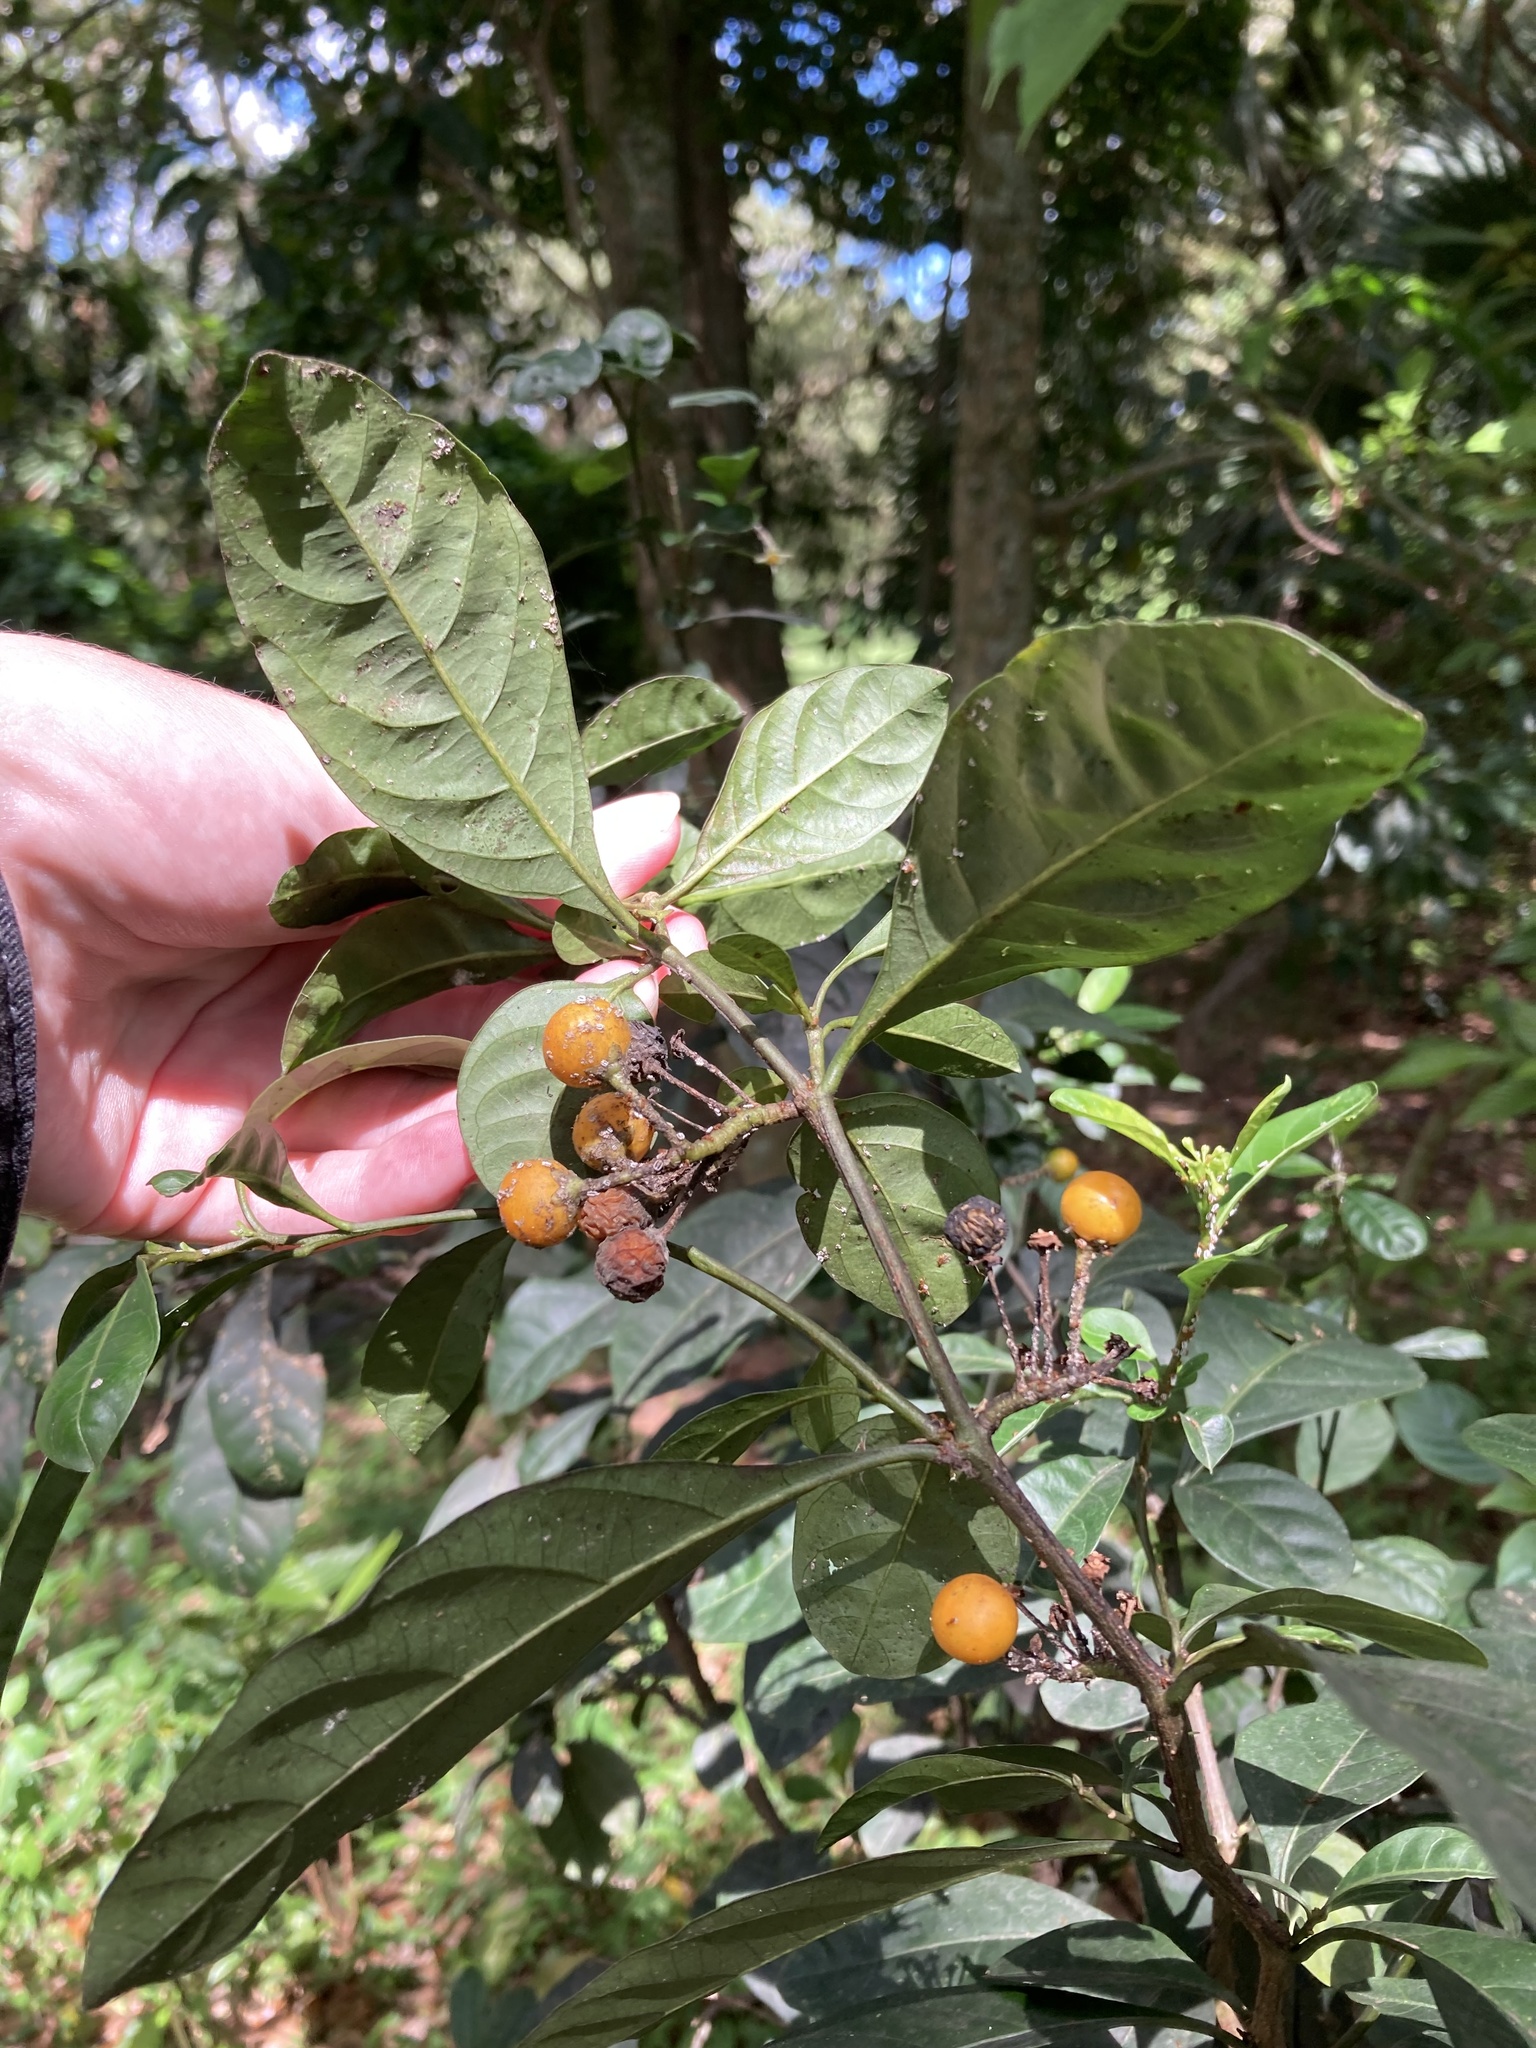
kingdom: Plantae
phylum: Tracheophyta
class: Magnoliopsida
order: Solanales
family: Solanaceae
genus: Solanum
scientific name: Solanum diphyllum
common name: Twoleaf nightshade
